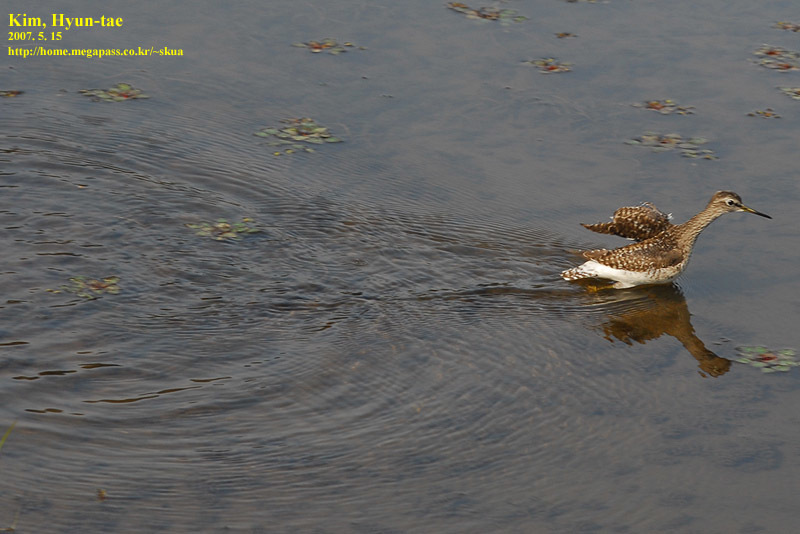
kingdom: Animalia
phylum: Chordata
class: Aves
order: Charadriiformes
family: Scolopacidae
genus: Tringa
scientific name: Tringa glareola
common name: Wood sandpiper
